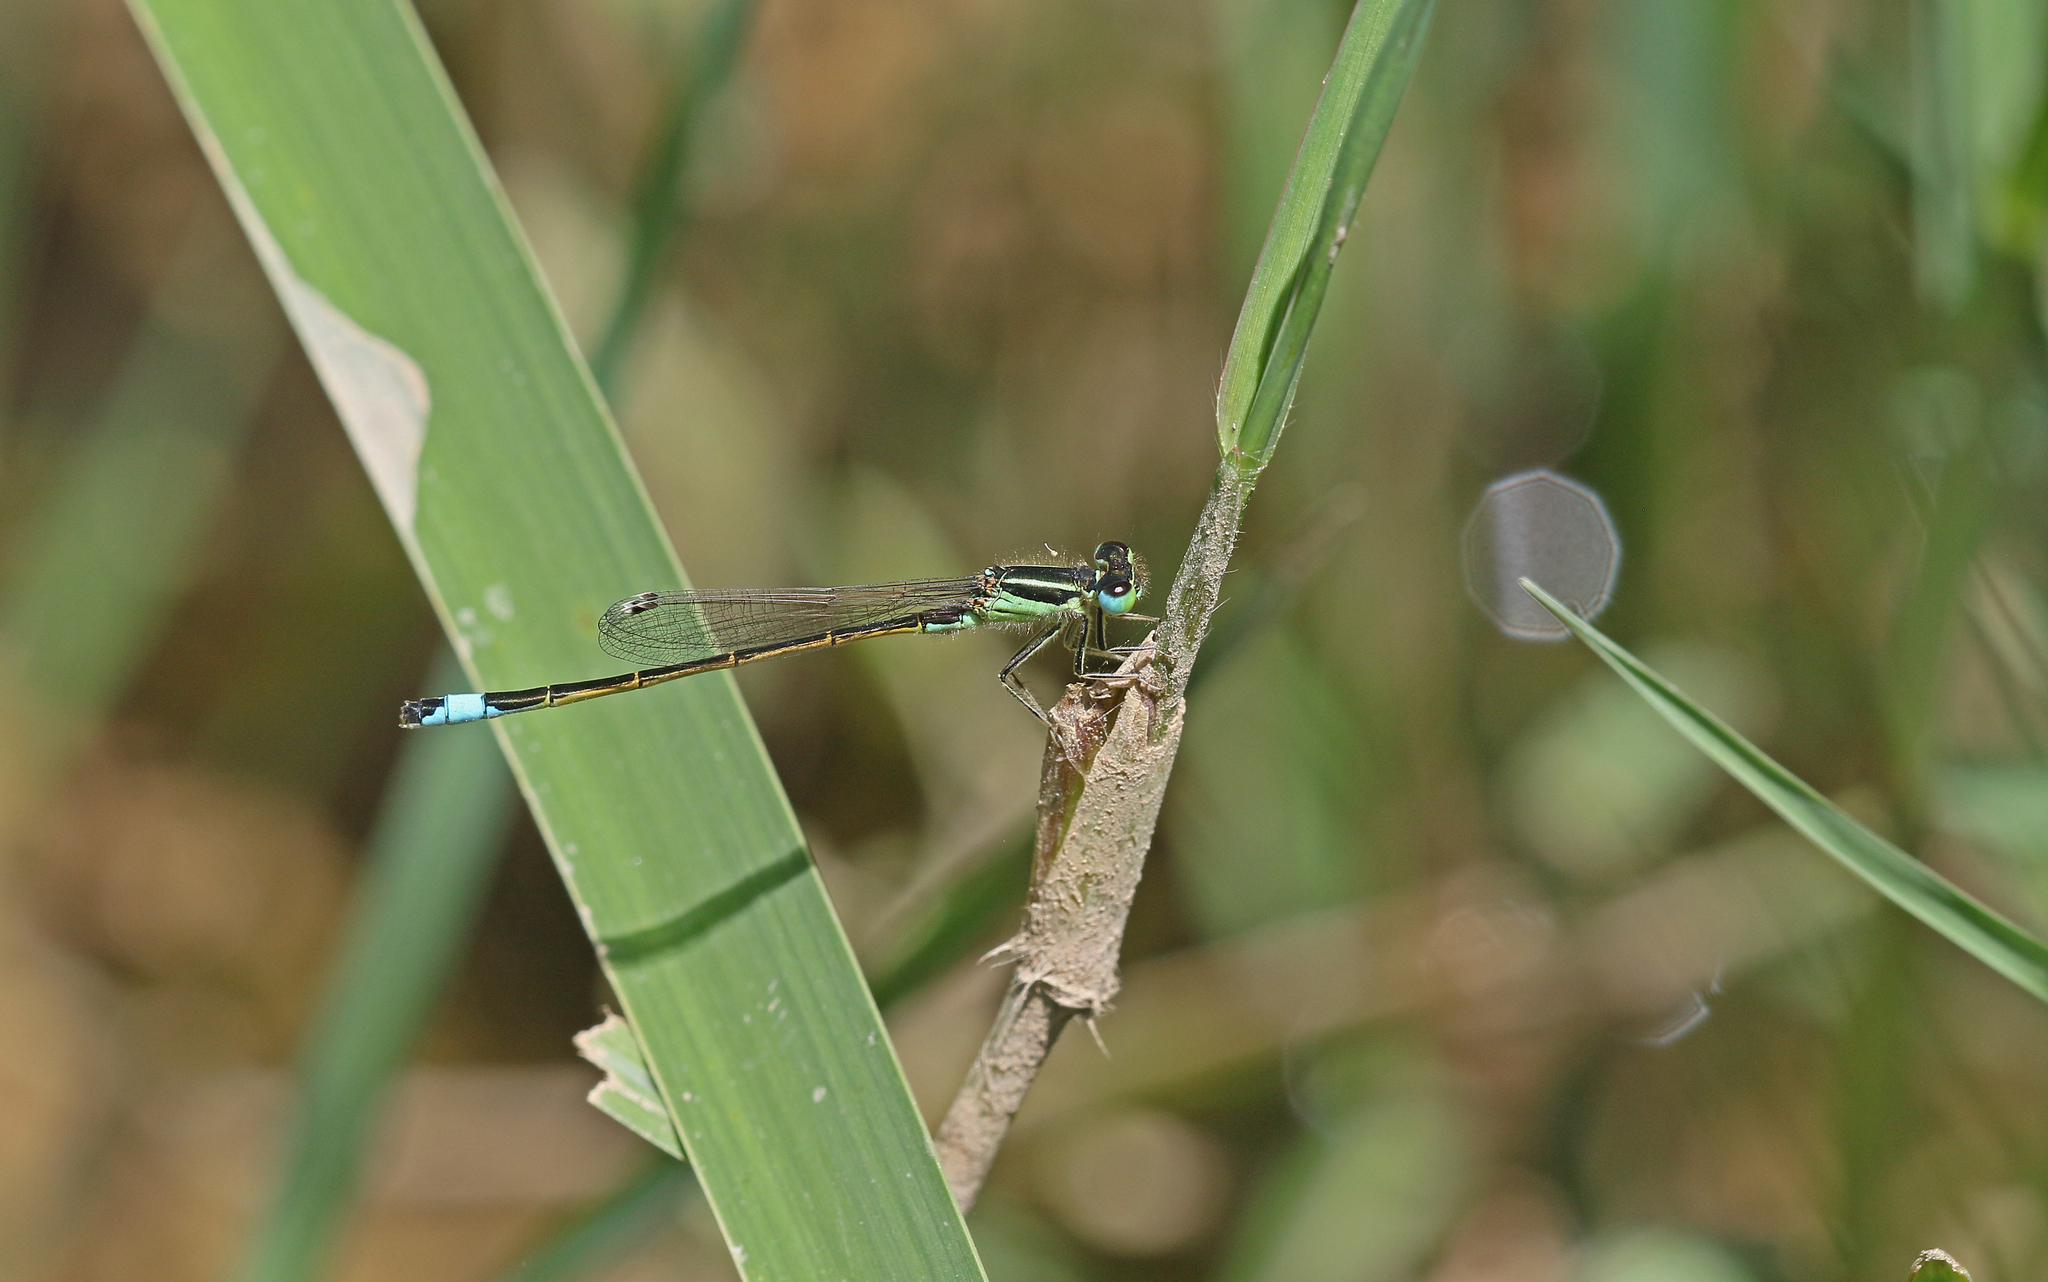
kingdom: Animalia
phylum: Arthropoda
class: Insecta
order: Odonata
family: Coenagrionidae
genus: Ischnura
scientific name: Ischnura graellsii
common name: Iberian bluetail
